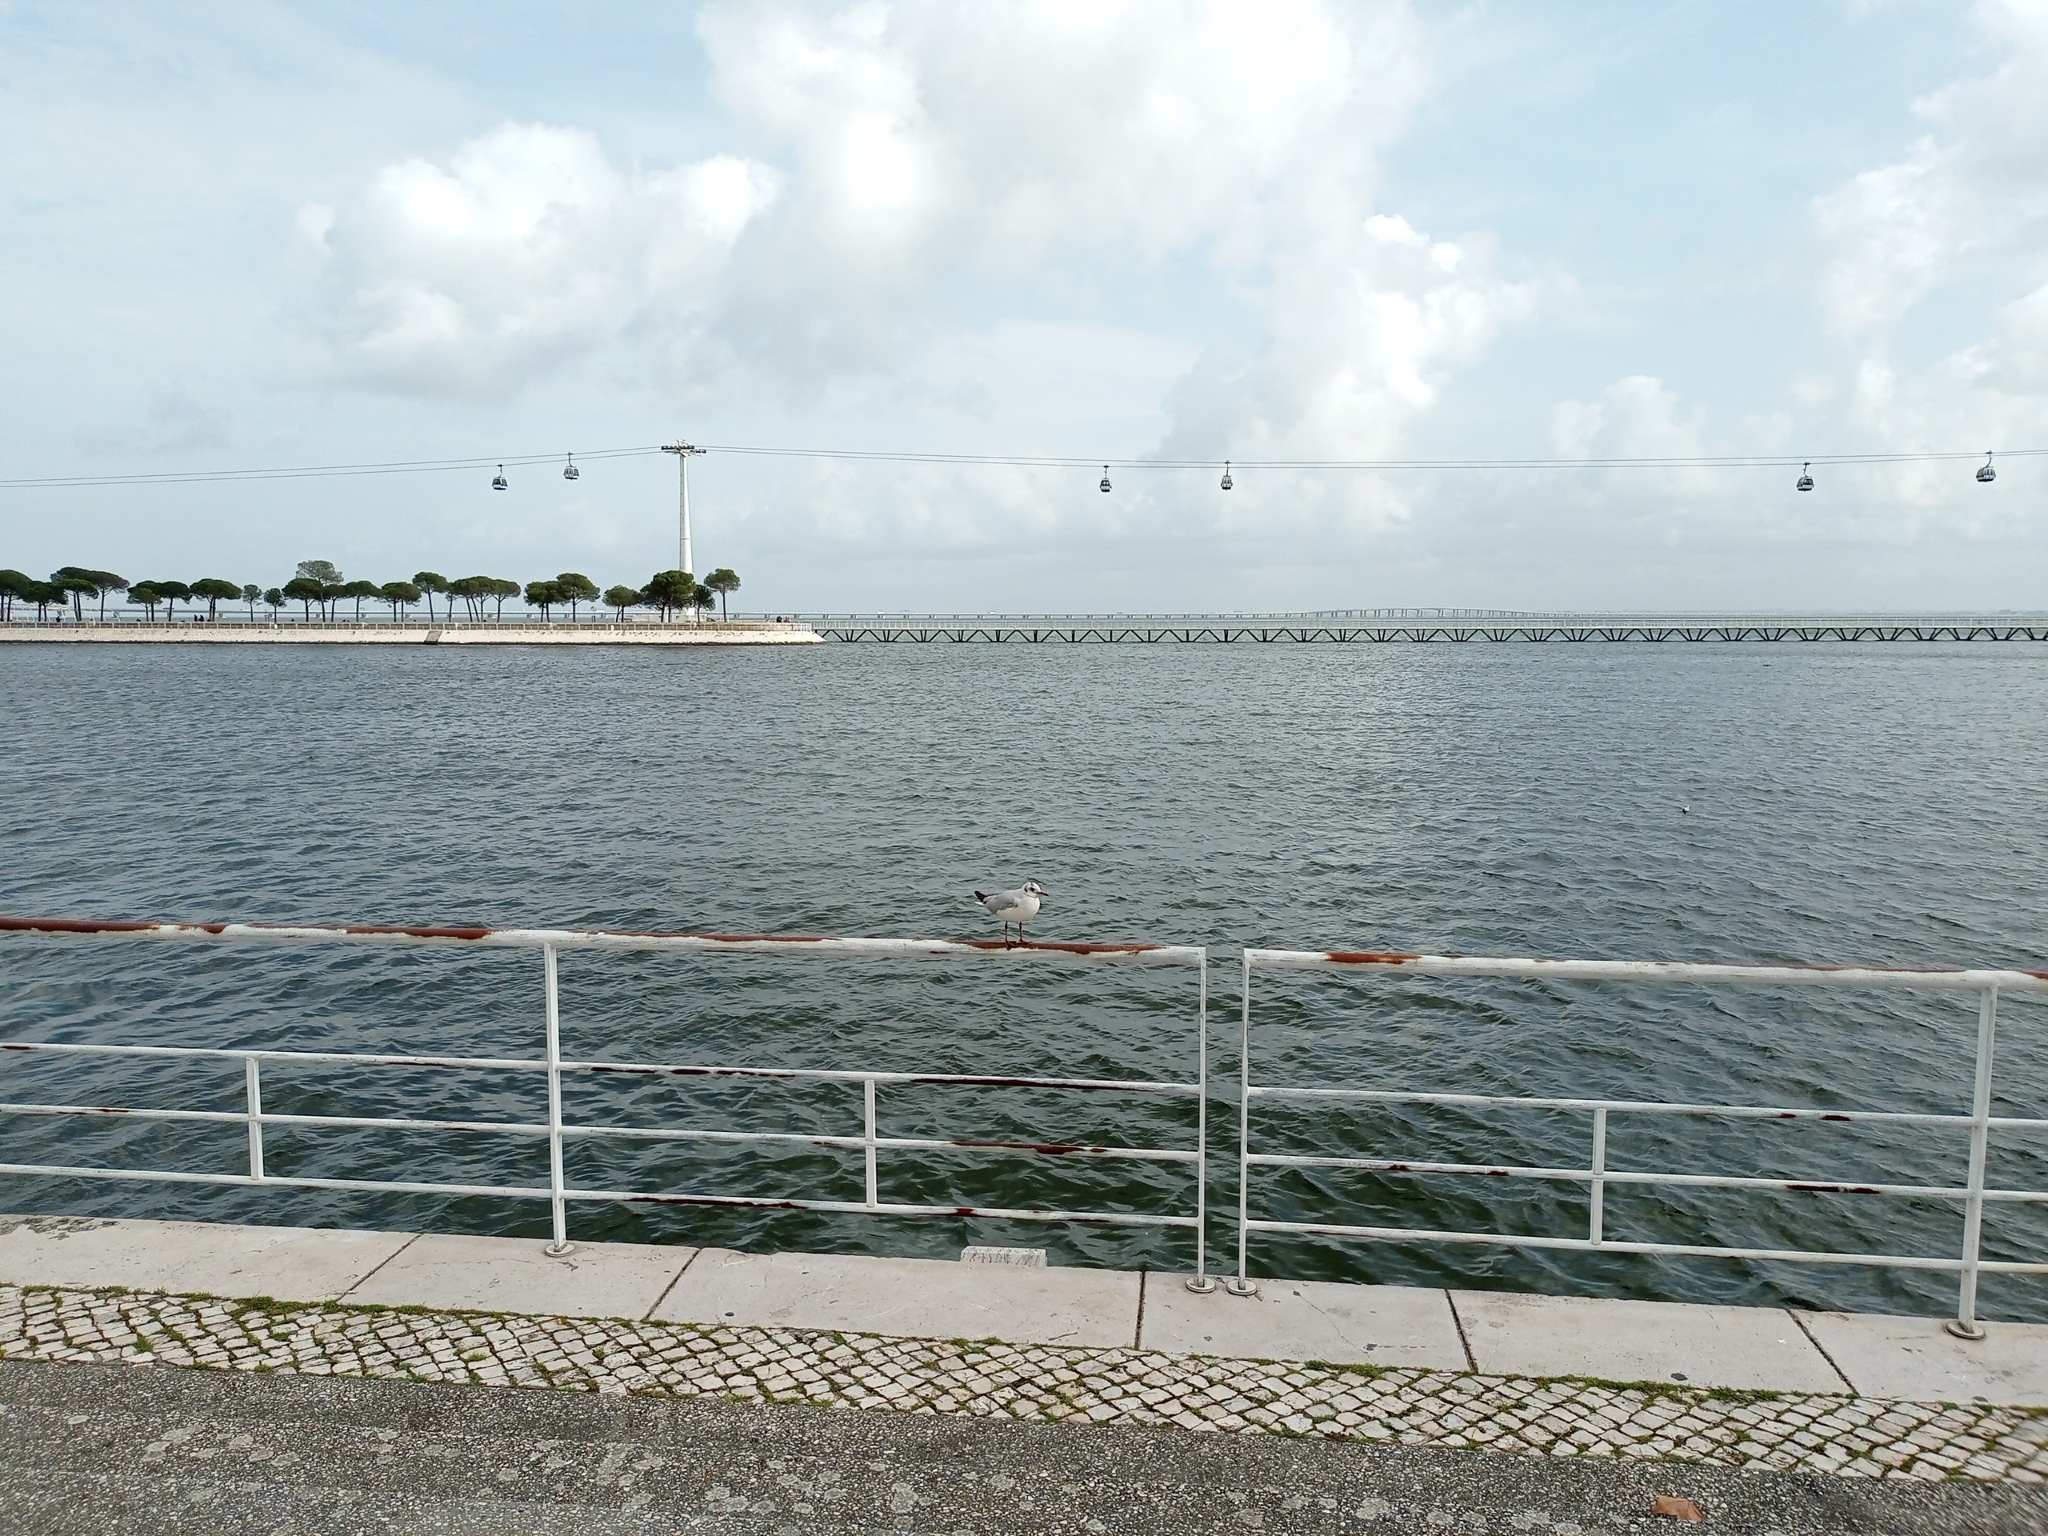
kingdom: Animalia
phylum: Chordata
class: Aves
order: Charadriiformes
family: Laridae
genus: Chroicocephalus
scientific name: Chroicocephalus ridibundus
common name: Black-headed gull
